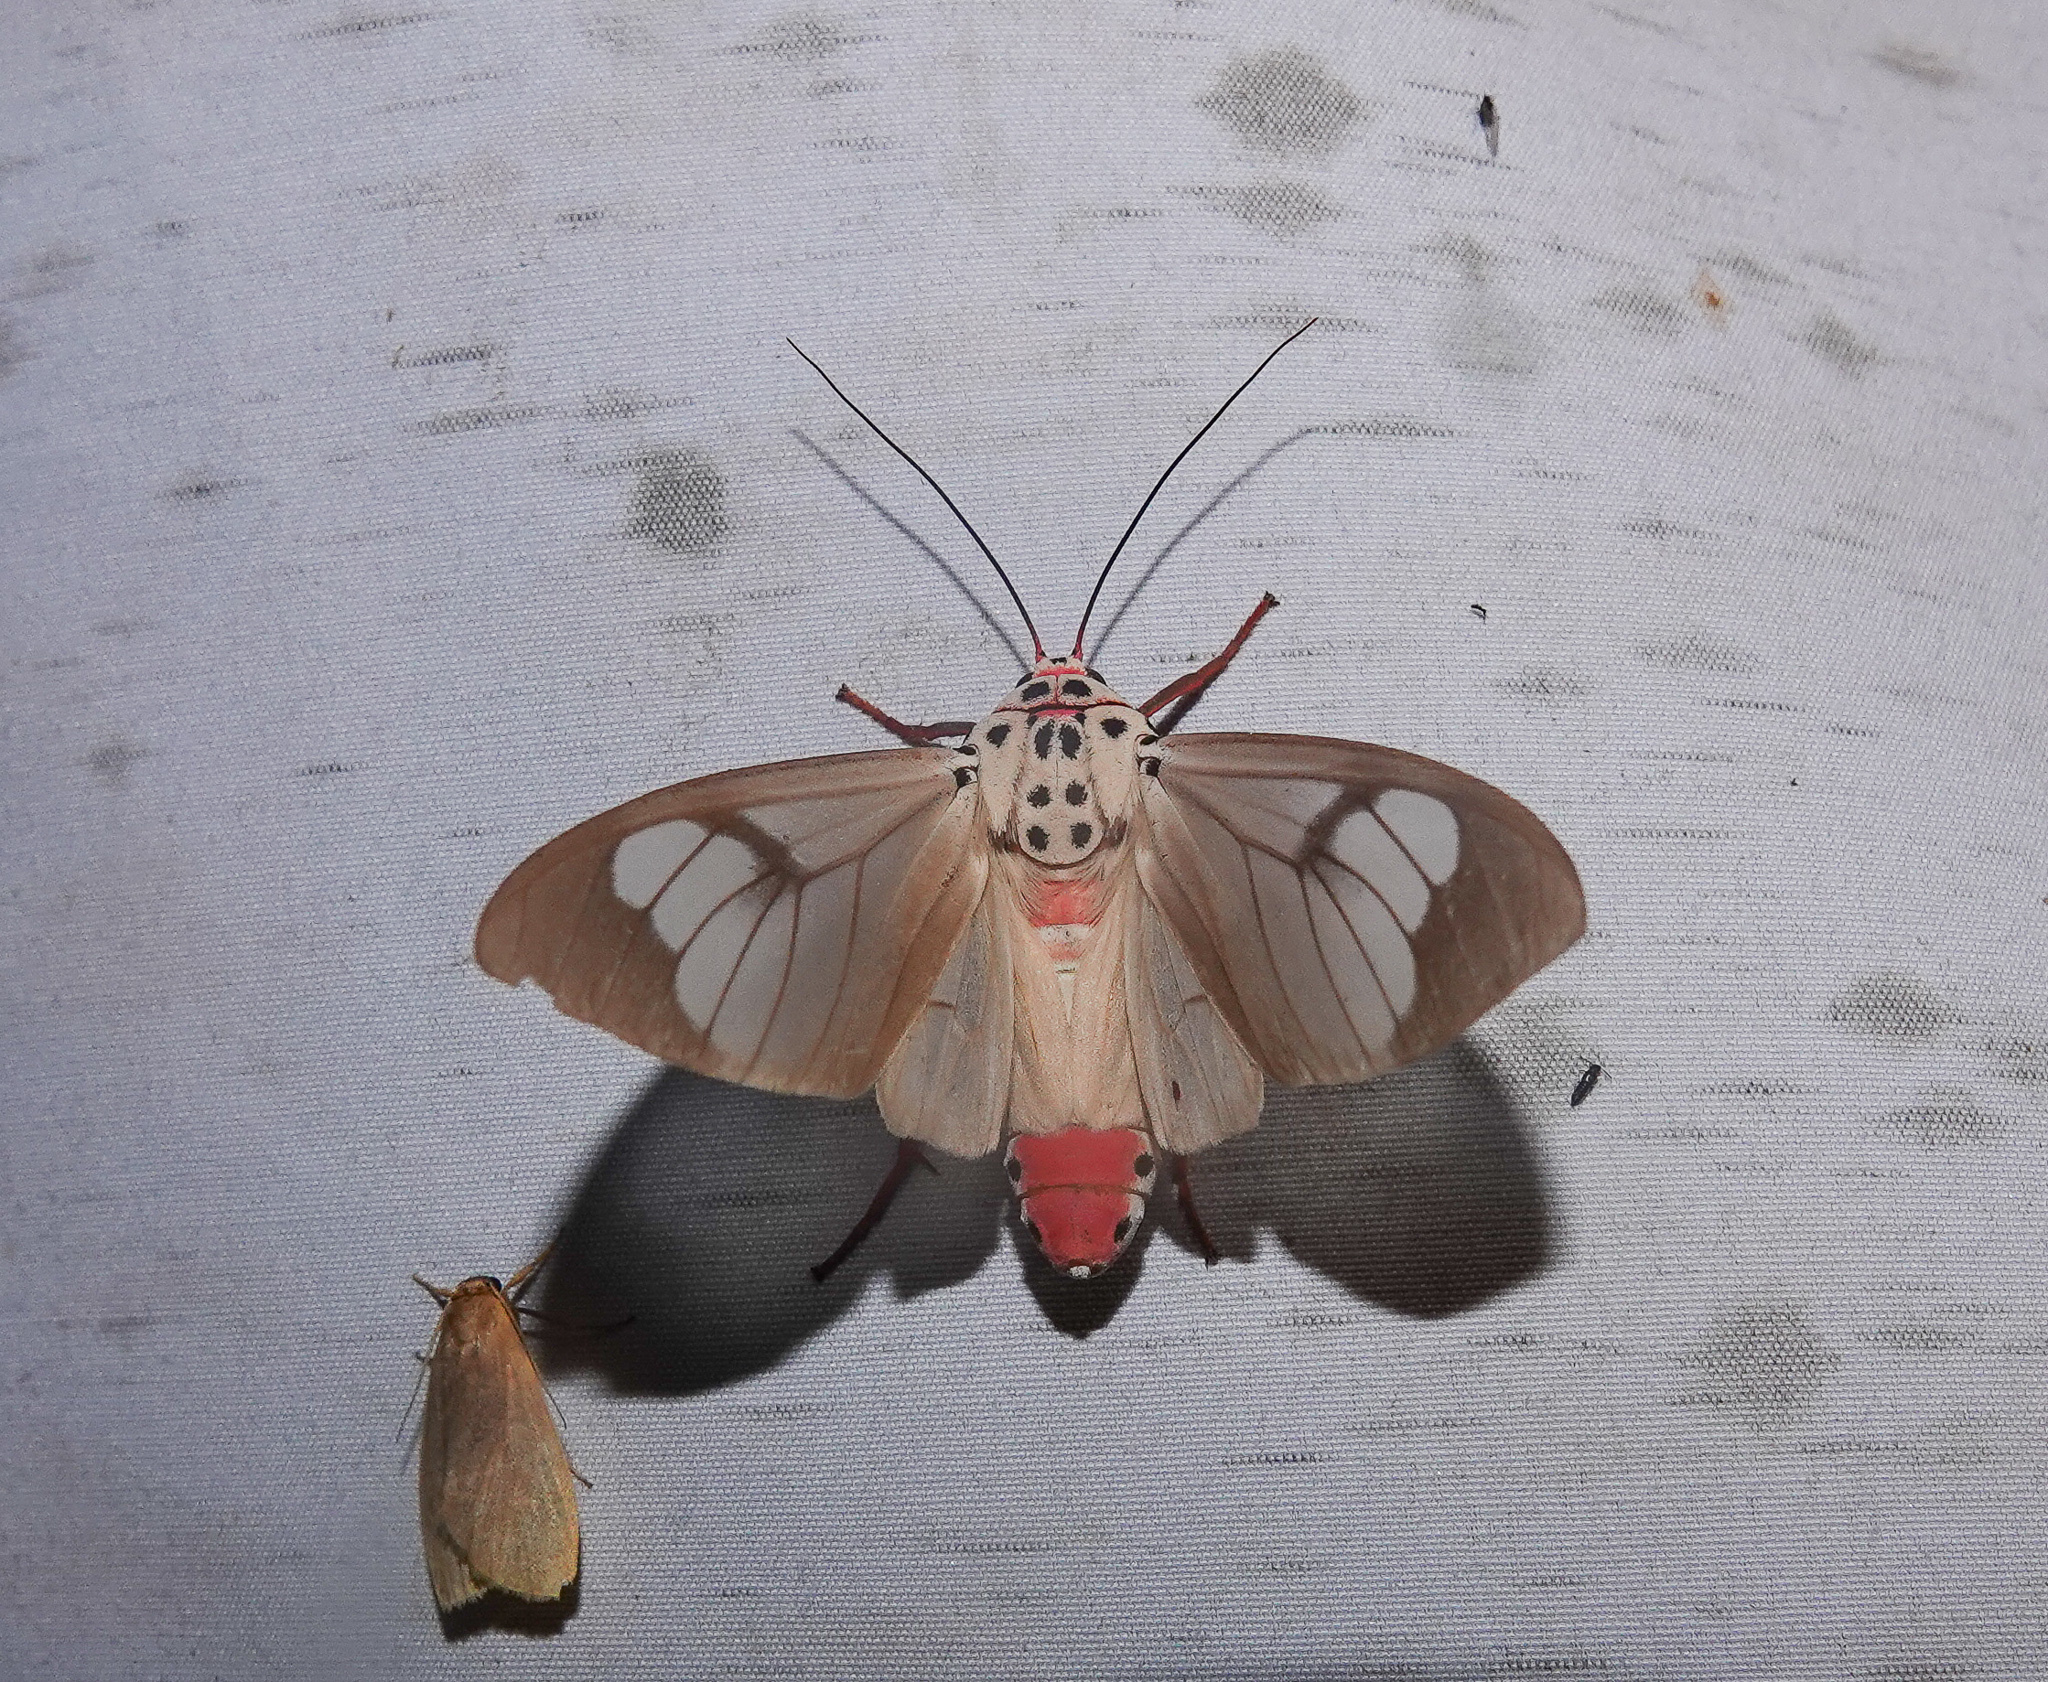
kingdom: Animalia
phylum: Arthropoda
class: Insecta
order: Lepidoptera
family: Erebidae
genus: Amerila
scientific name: Amerila astreus
